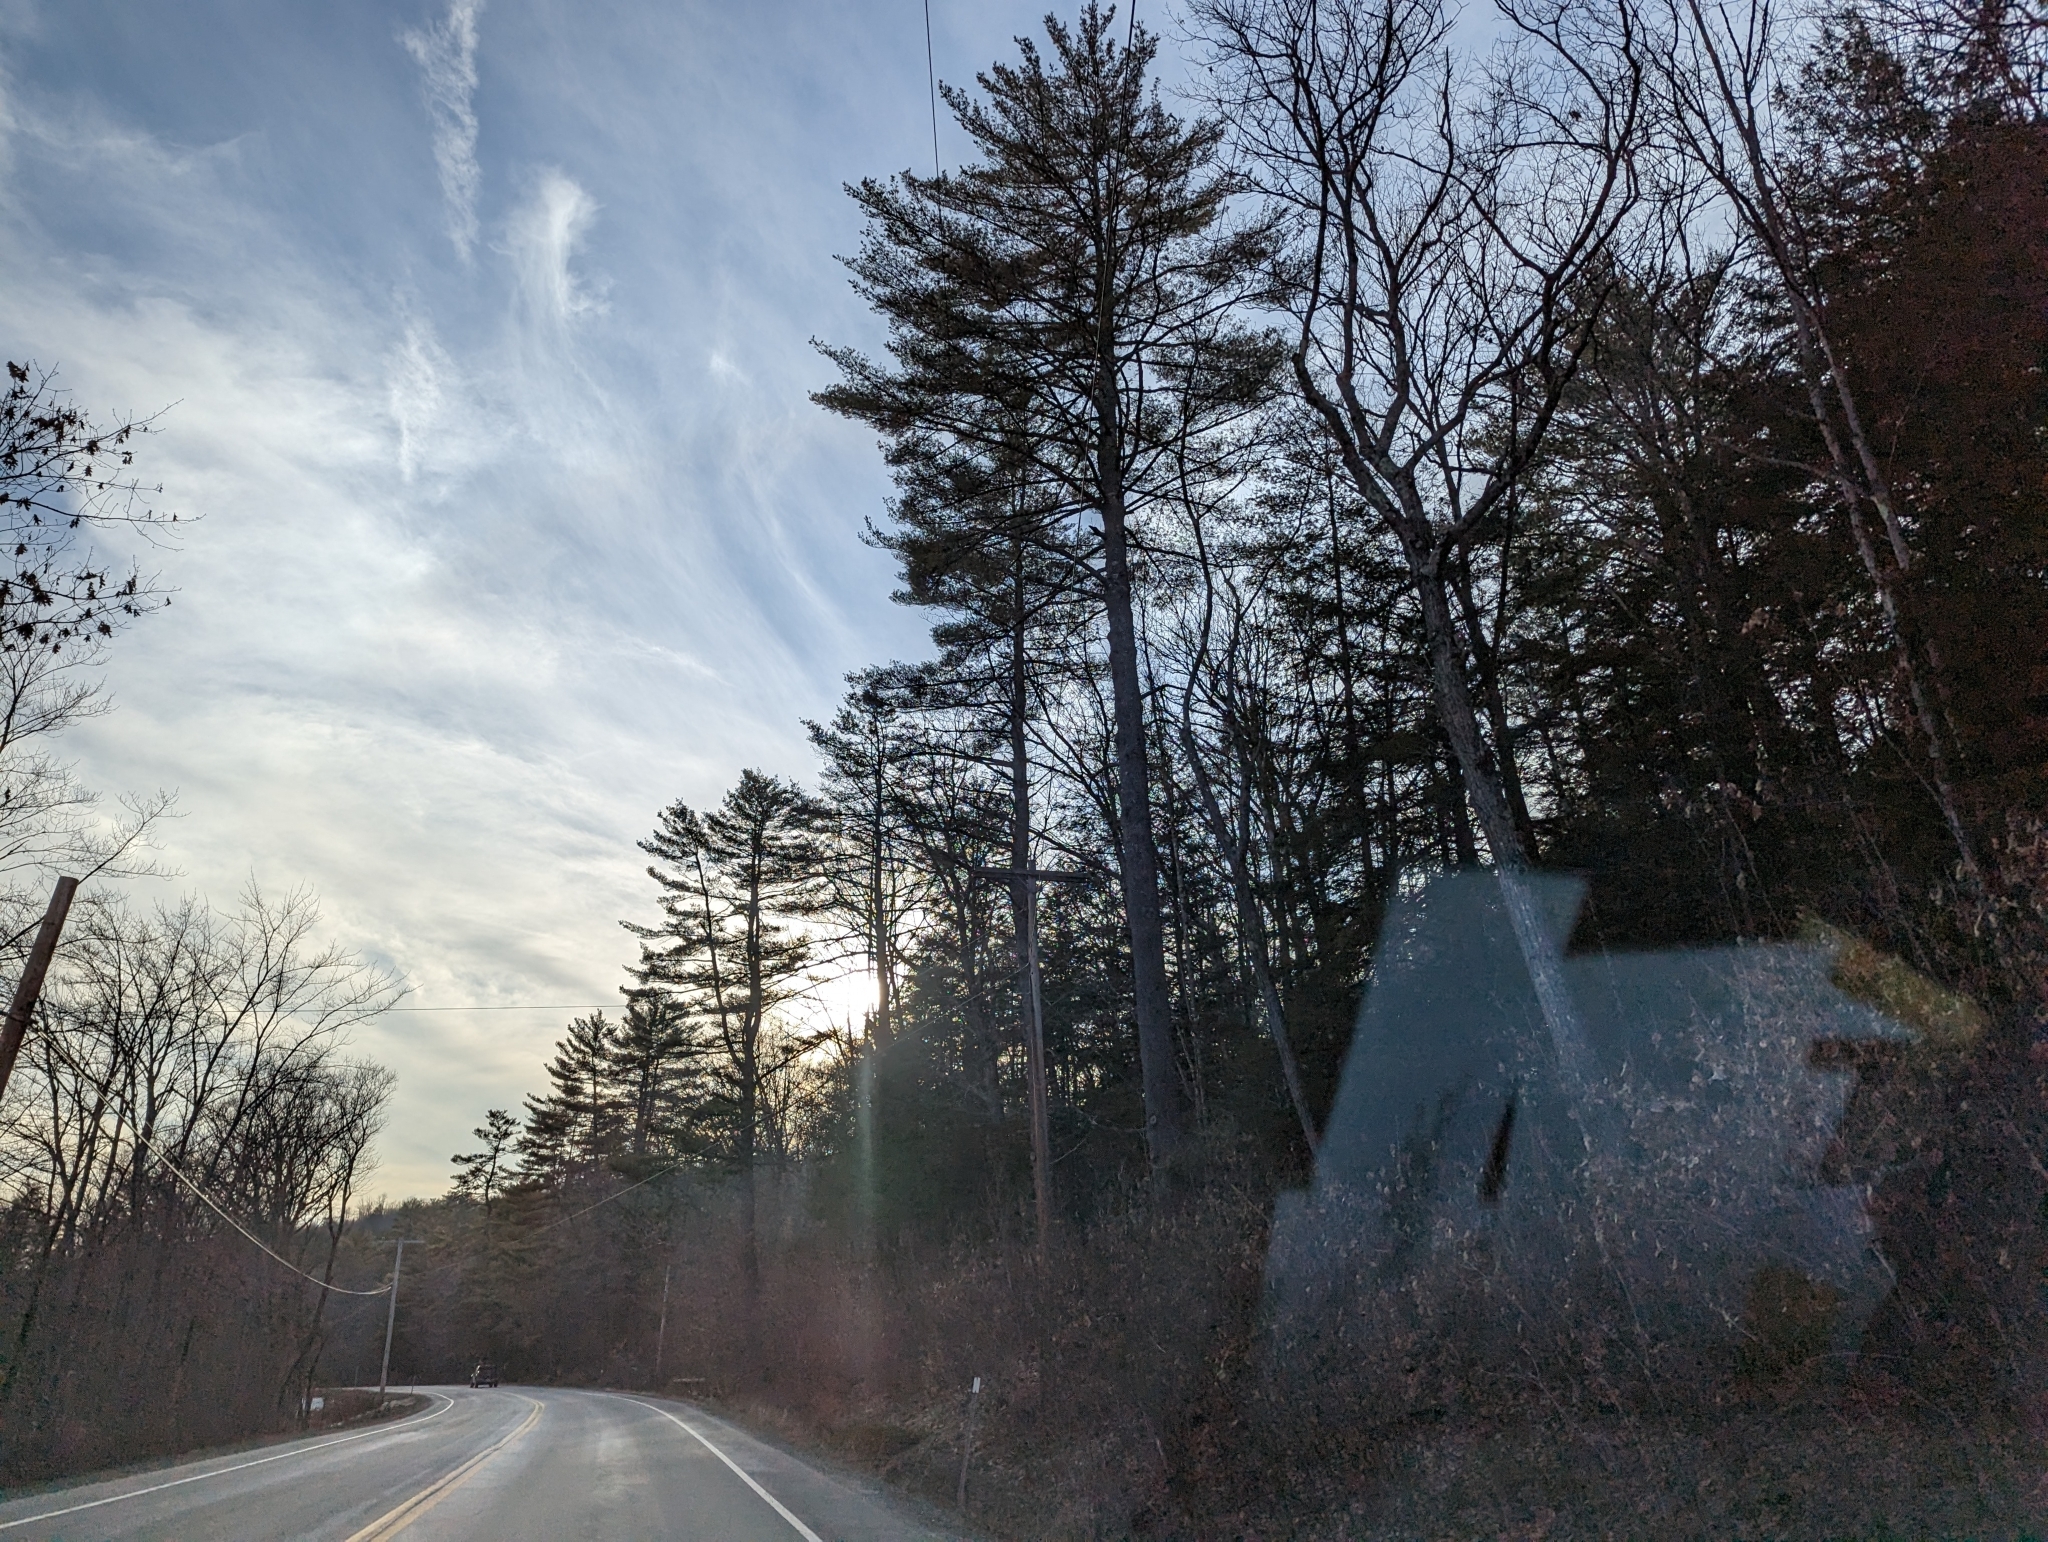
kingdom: Plantae
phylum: Tracheophyta
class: Pinopsida
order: Pinales
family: Pinaceae
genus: Pinus
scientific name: Pinus strobus
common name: Weymouth pine
